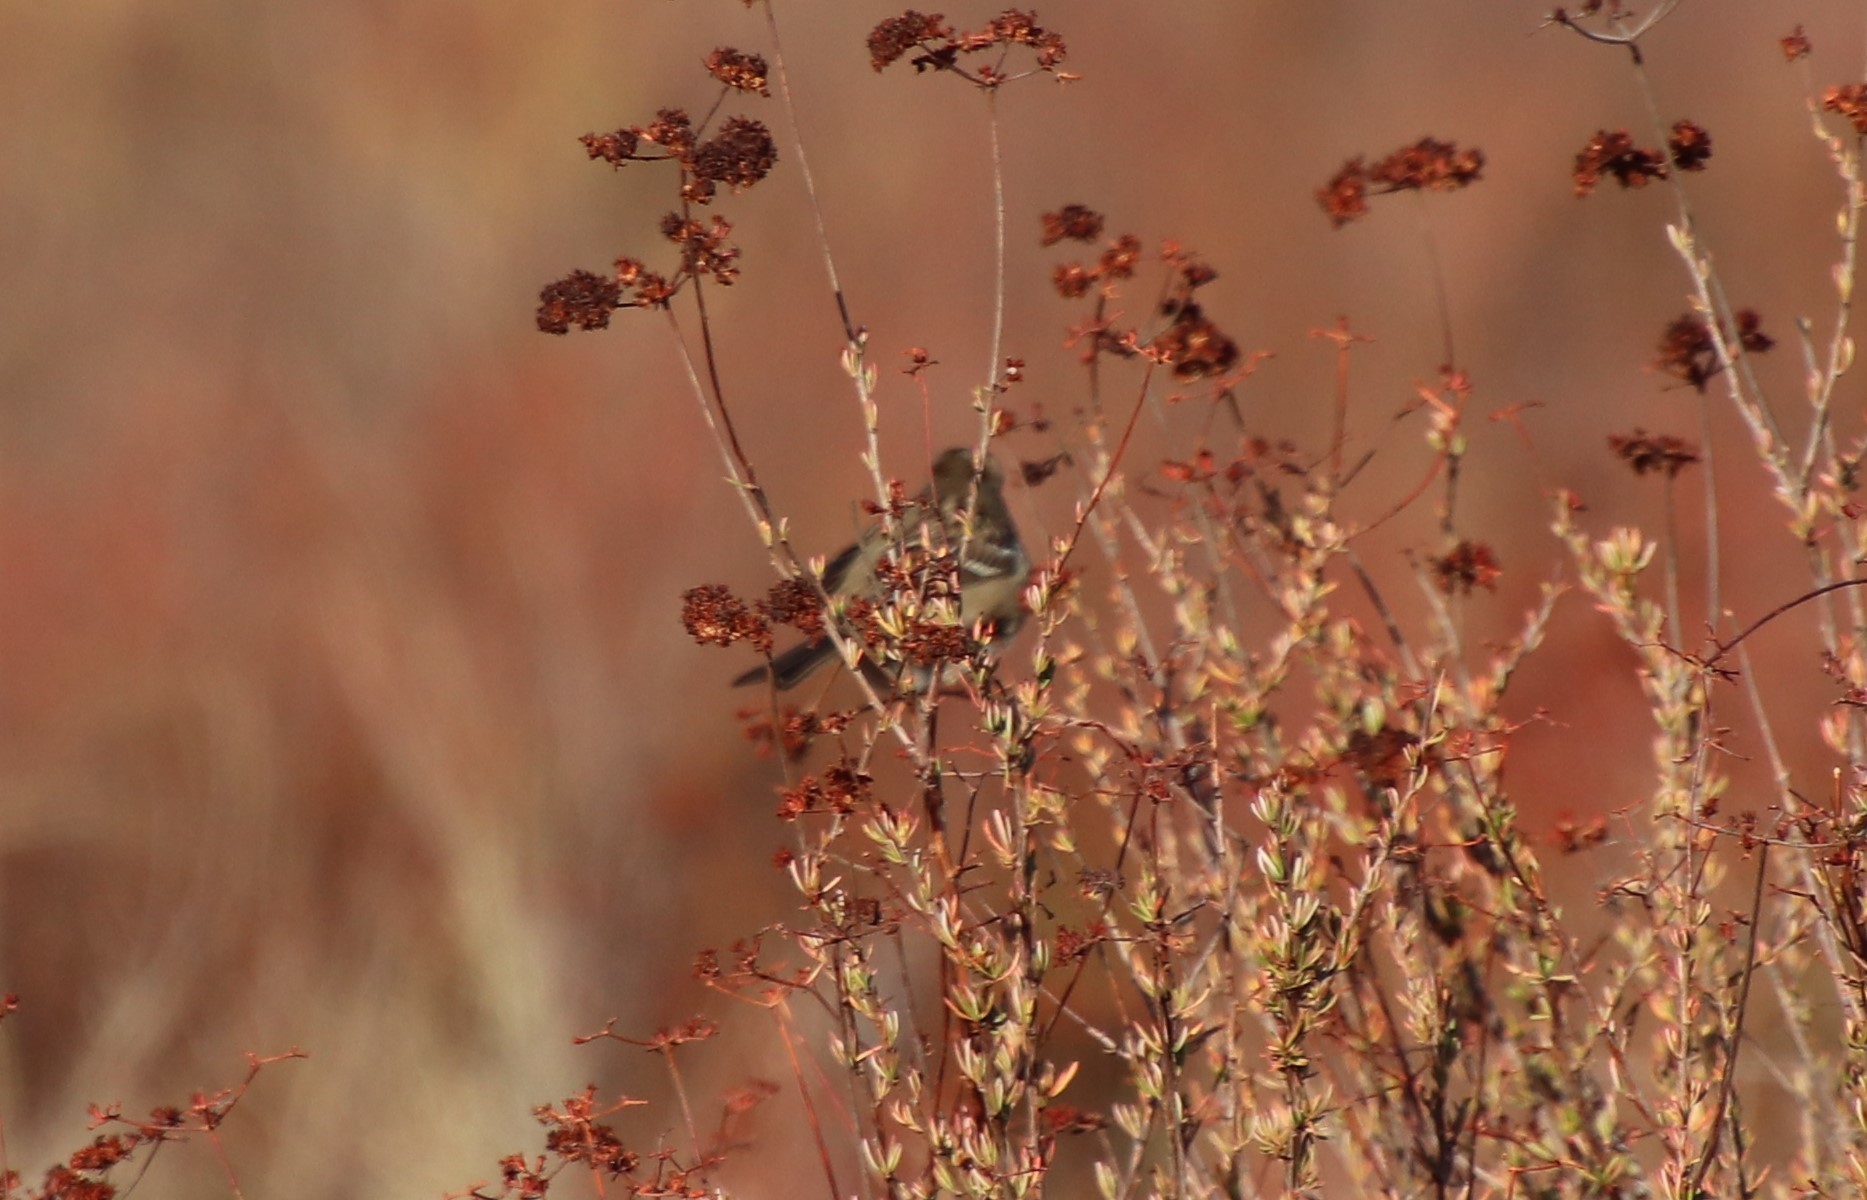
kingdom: Animalia
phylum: Chordata
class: Aves
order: Passeriformes
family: Passerellidae
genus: Zonotrichia
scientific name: Zonotrichia leucophrys
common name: White-crowned sparrow
